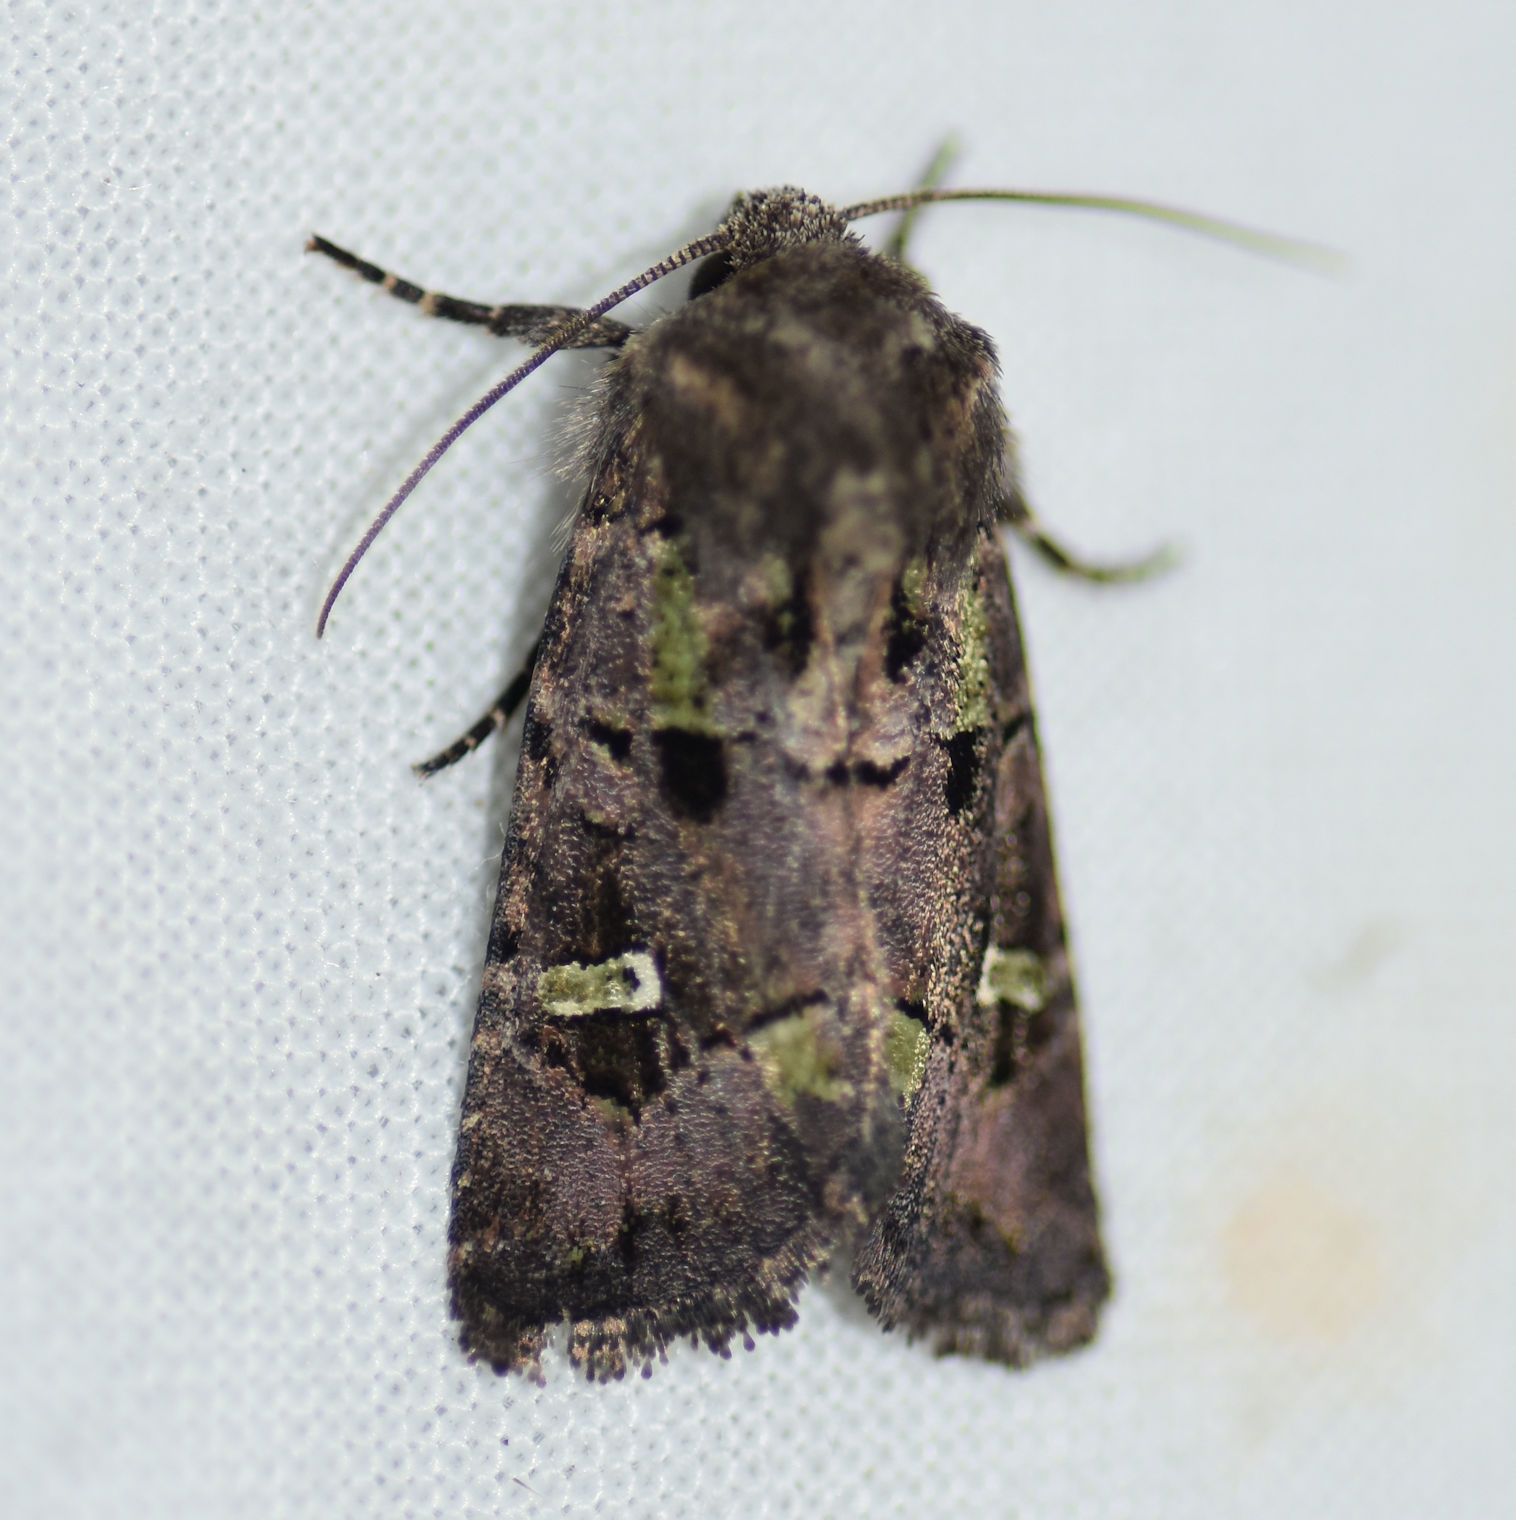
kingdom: Animalia
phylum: Arthropoda
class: Insecta
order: Lepidoptera
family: Noctuidae
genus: Lacinipolia
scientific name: Lacinipolia renigera
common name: Kidney-spotted minor
